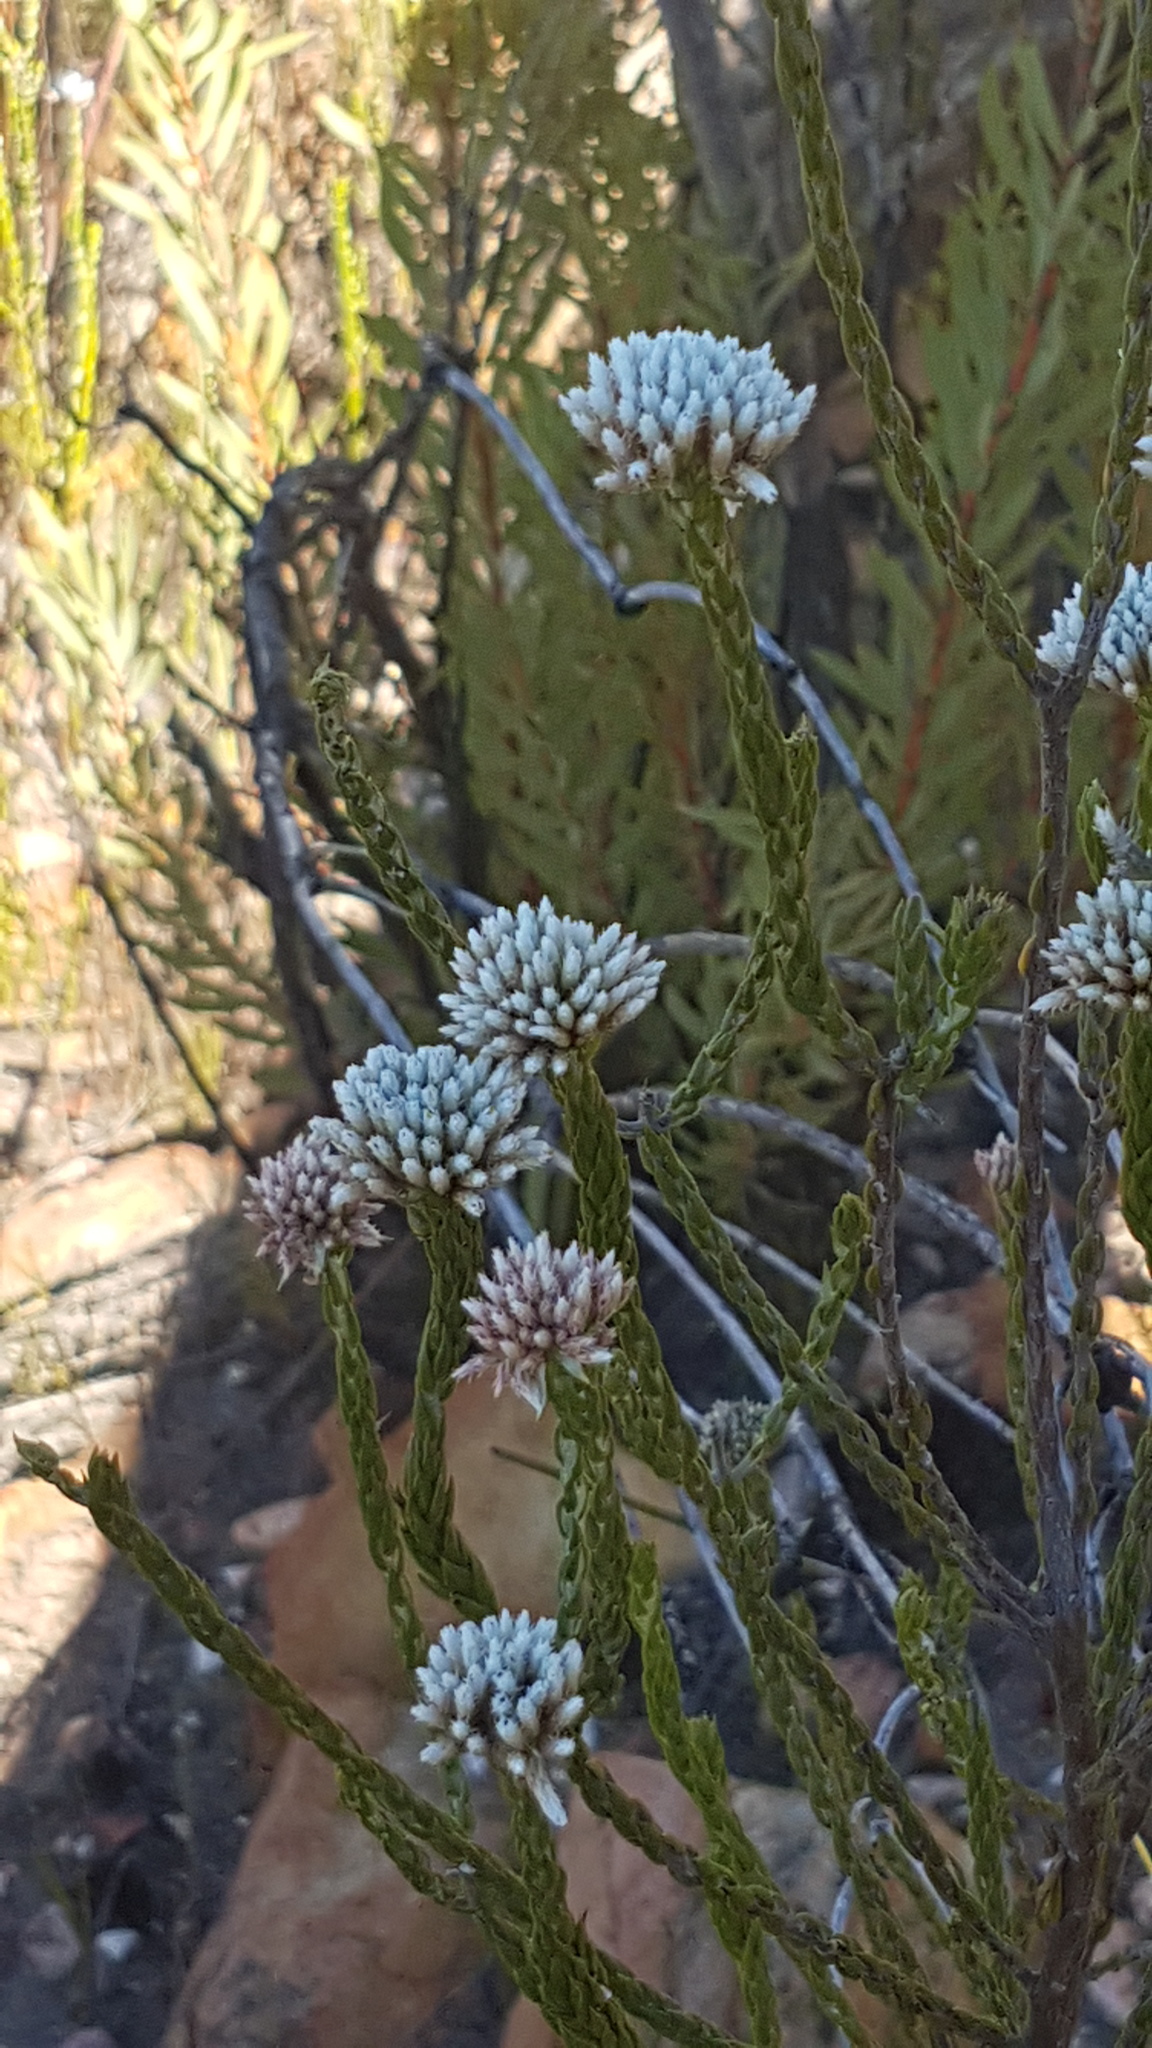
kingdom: Plantae
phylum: Tracheophyta
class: Magnoliopsida
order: Asterales
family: Asteraceae
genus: Metalasia
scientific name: Metalasia pulcherrima
